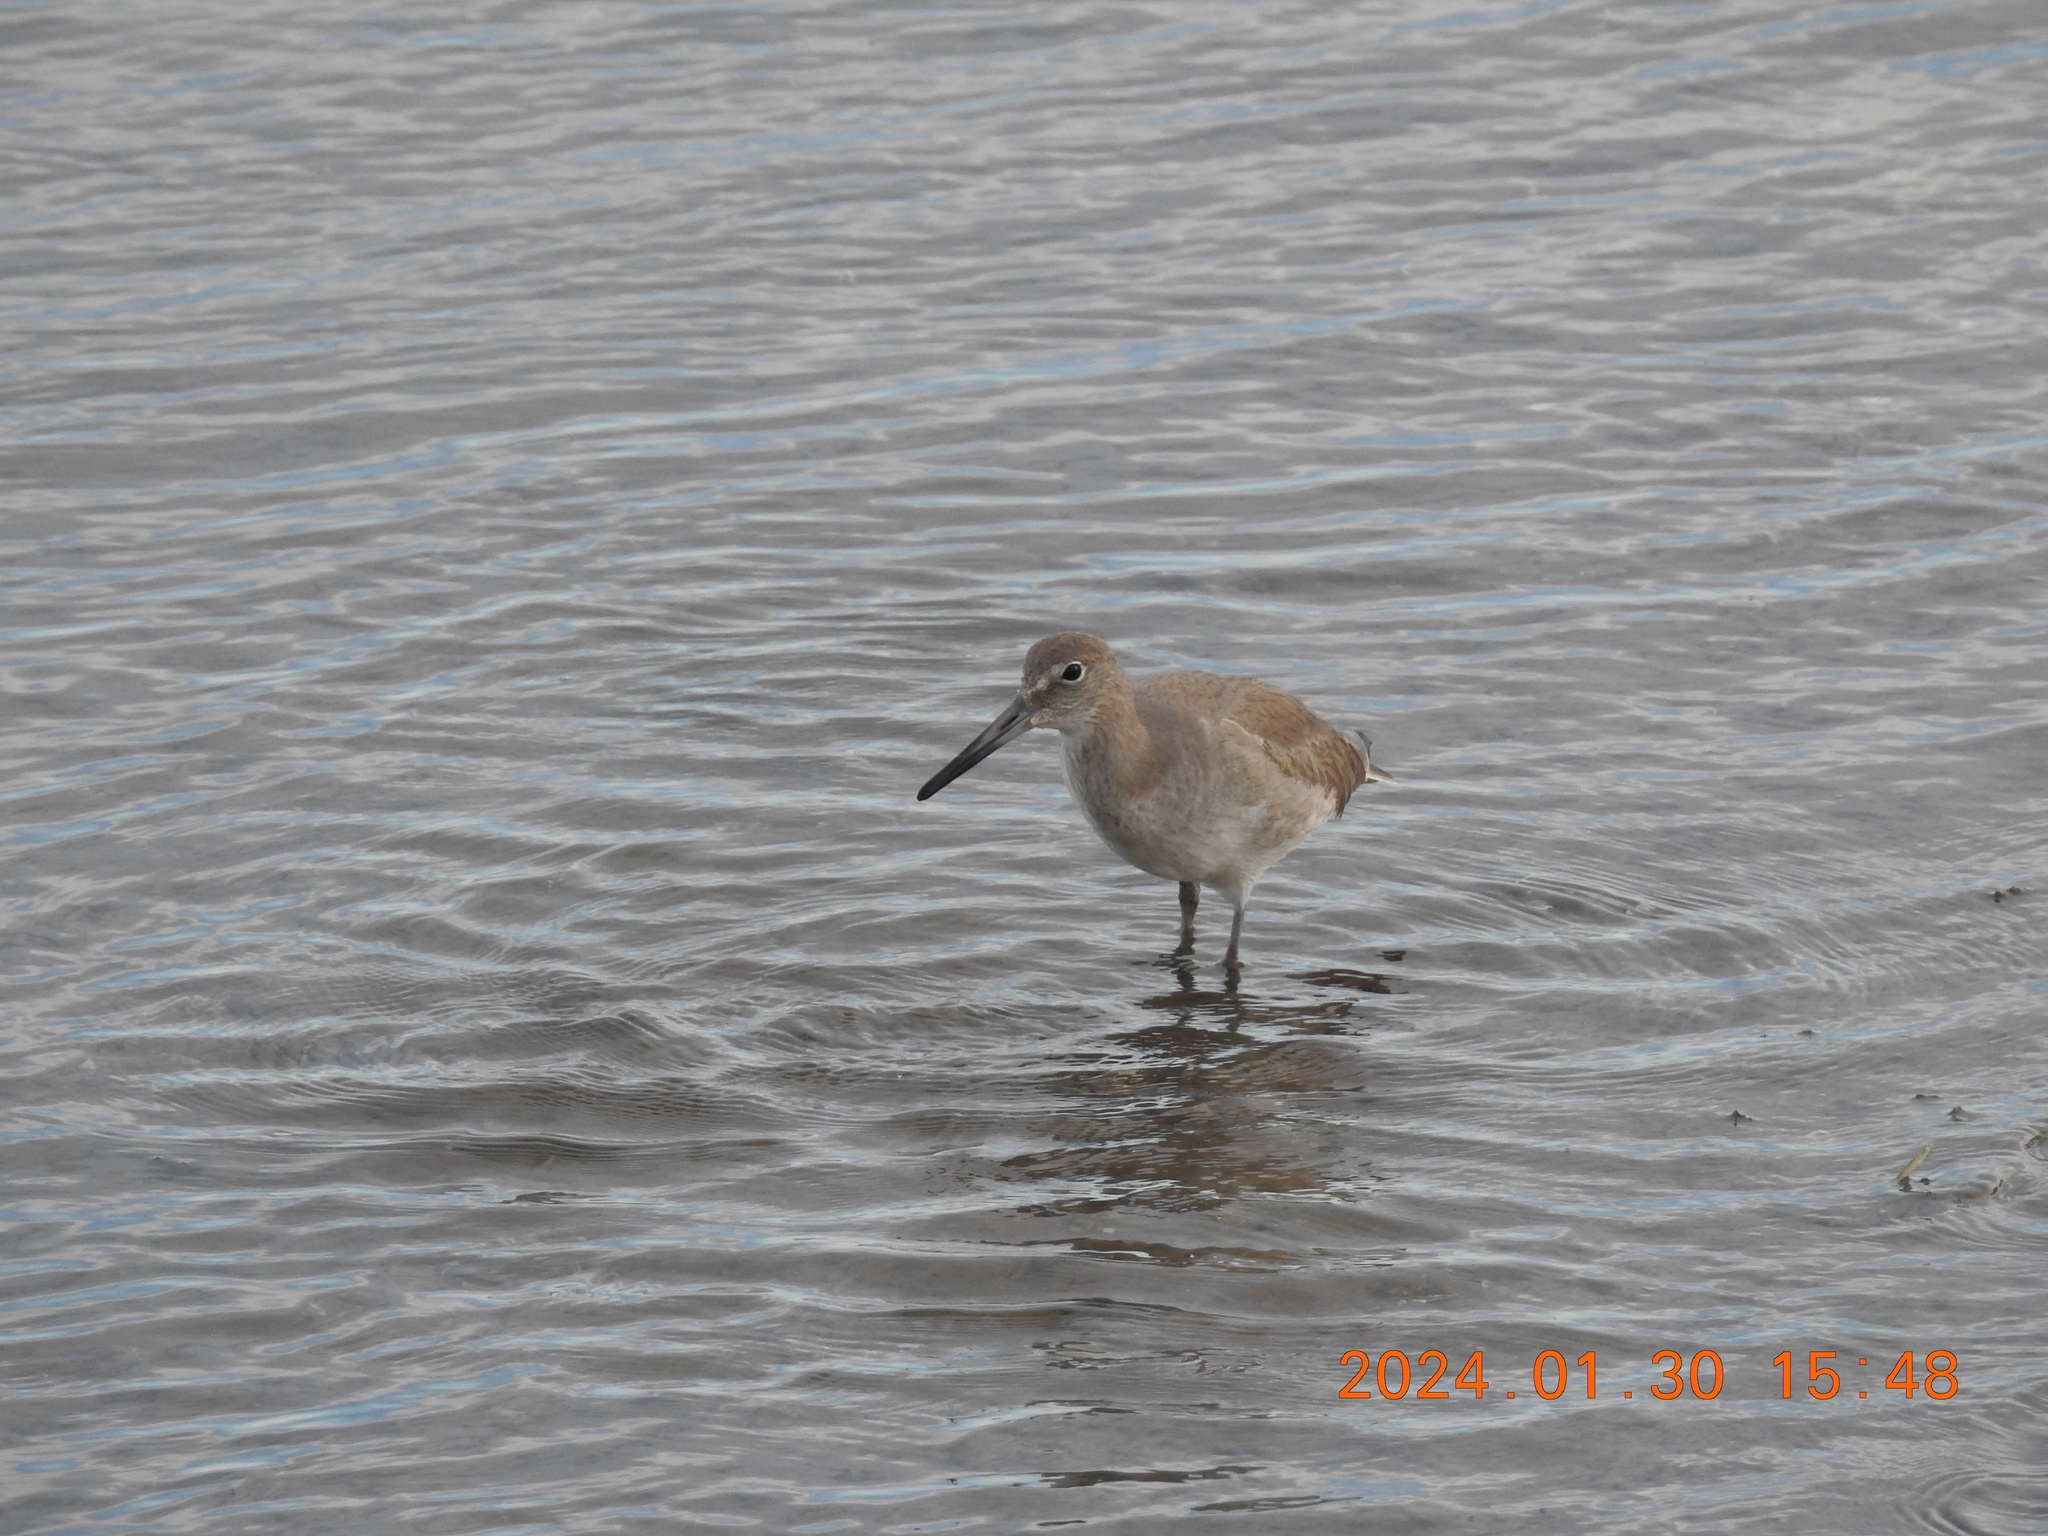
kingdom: Animalia
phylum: Chordata
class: Aves
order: Charadriiformes
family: Scolopacidae
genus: Tringa
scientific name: Tringa semipalmata
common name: Willet
